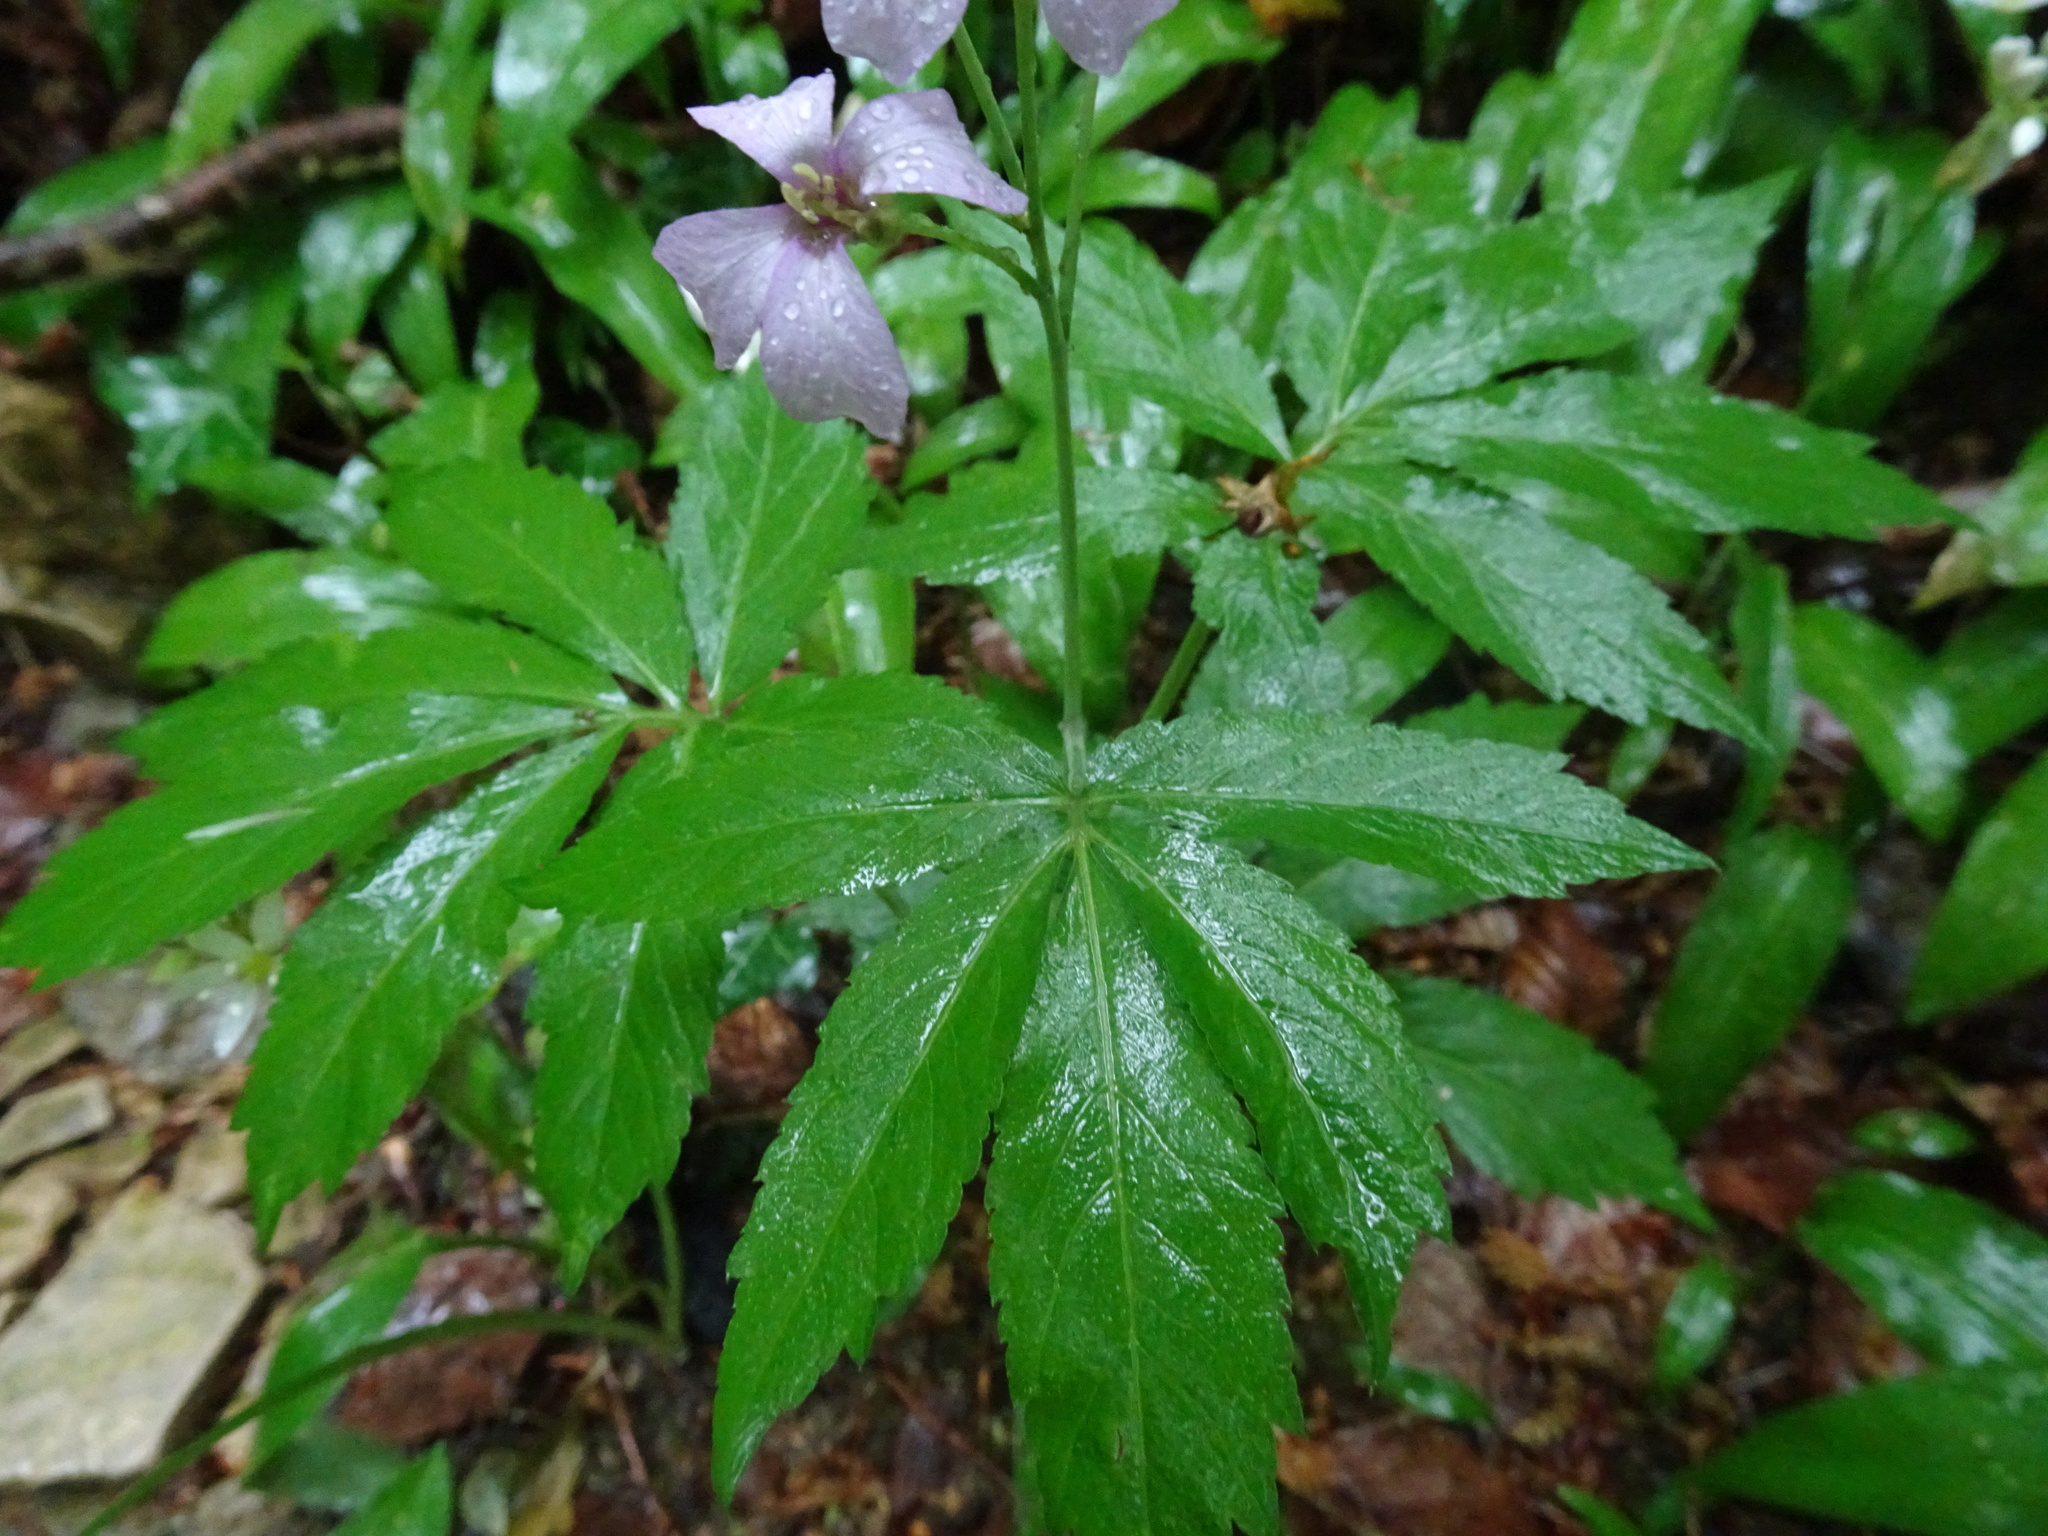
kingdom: Plantae
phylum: Tracheophyta
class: Magnoliopsida
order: Brassicales
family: Brassicaceae
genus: Cardamine
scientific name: Cardamine heptaphylla
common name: Pinnate coralroot
